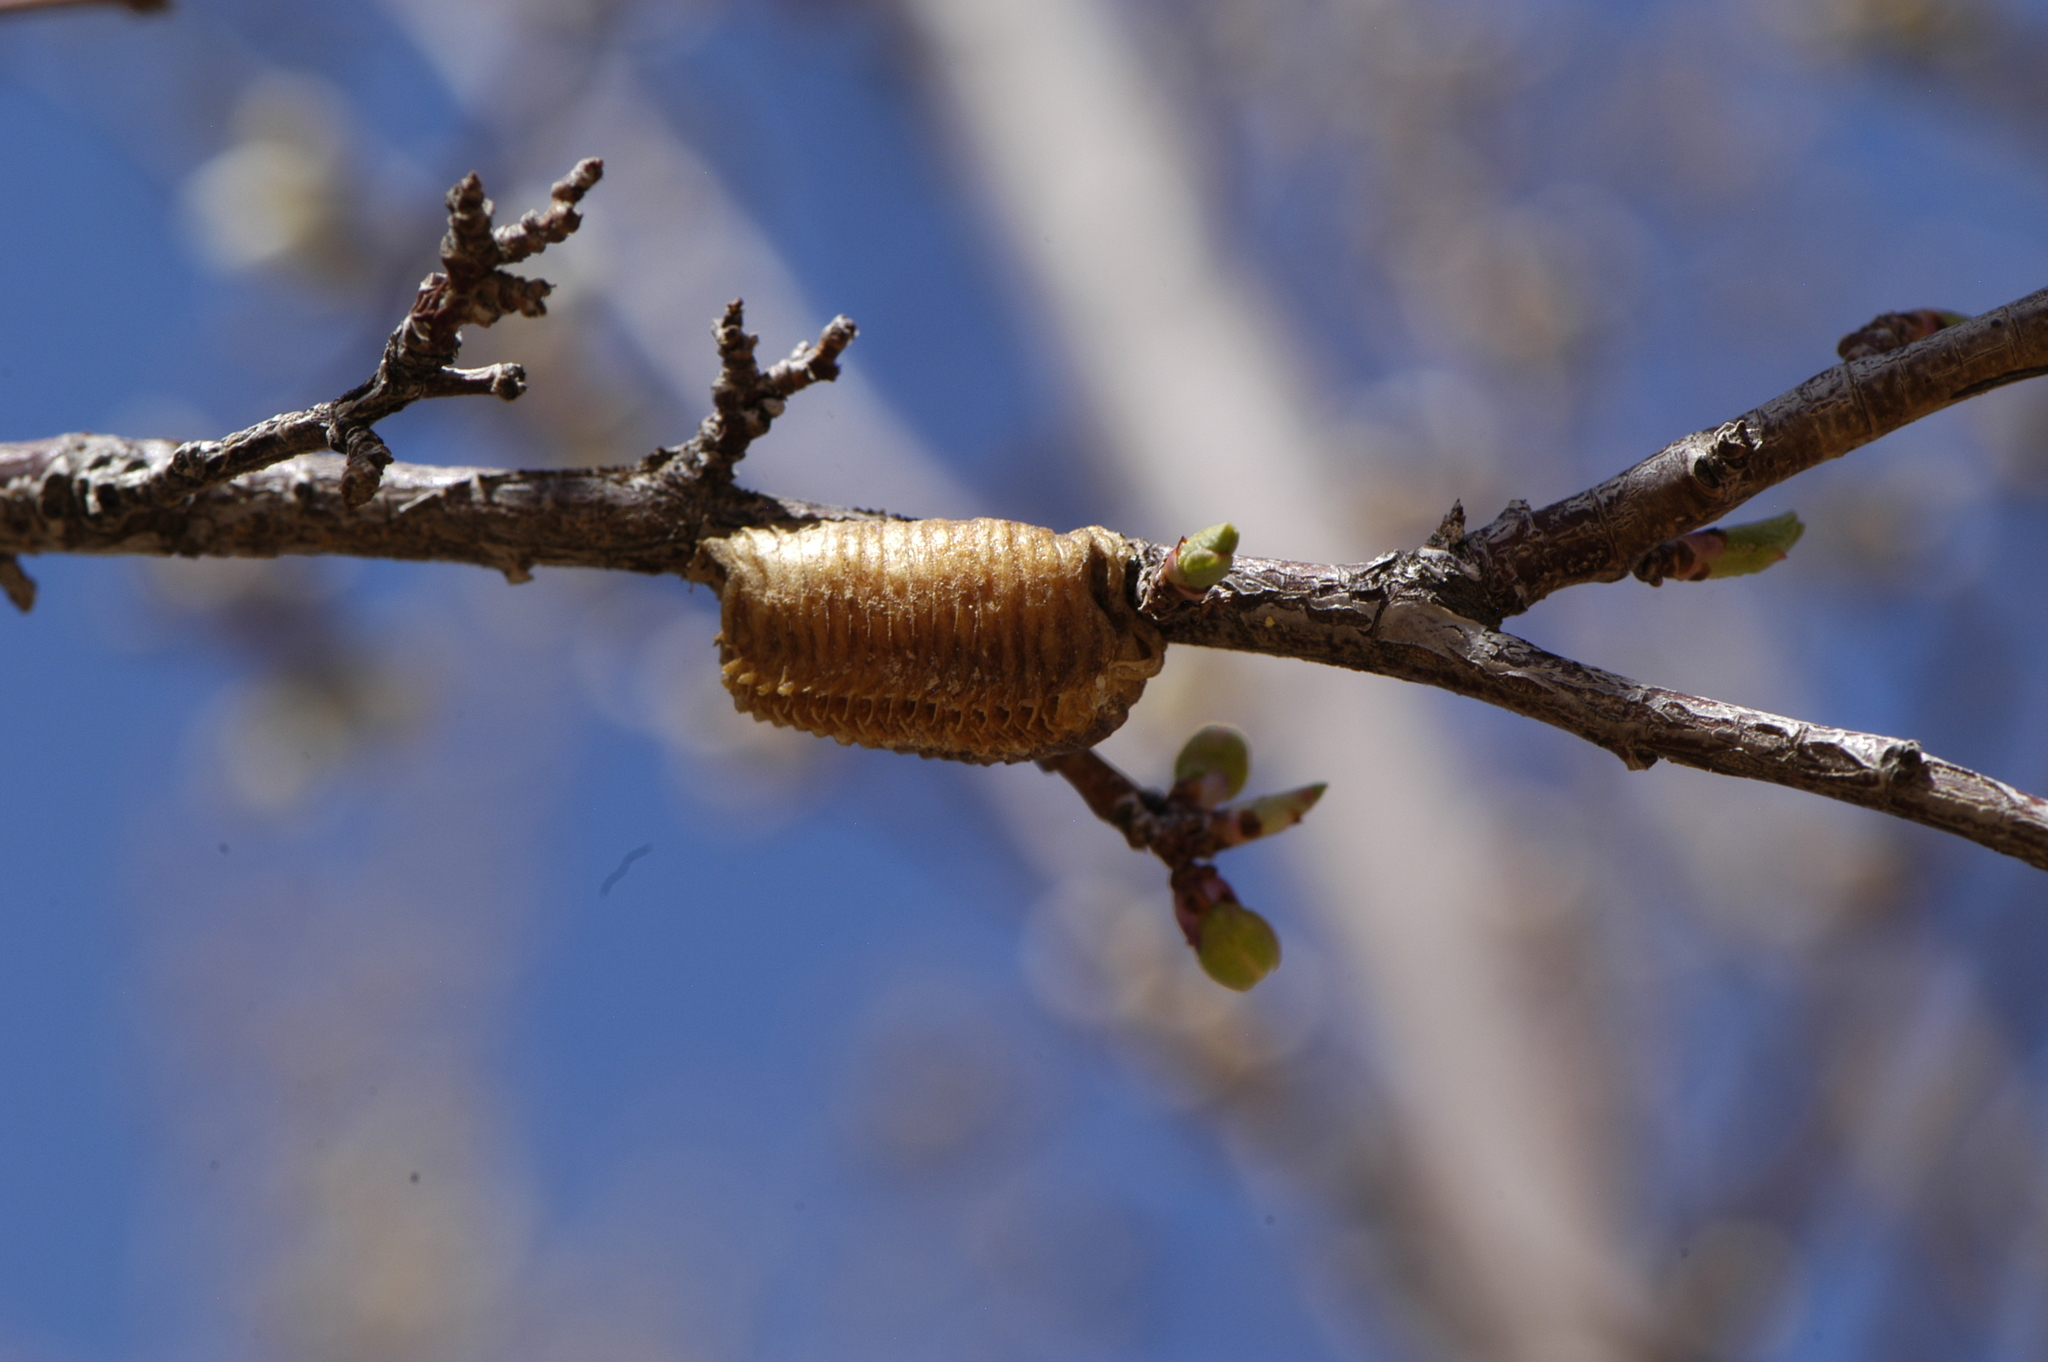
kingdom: Animalia
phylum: Arthropoda
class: Insecta
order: Mantodea
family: Mantidae
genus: Stagmomantis
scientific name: Stagmomantis
